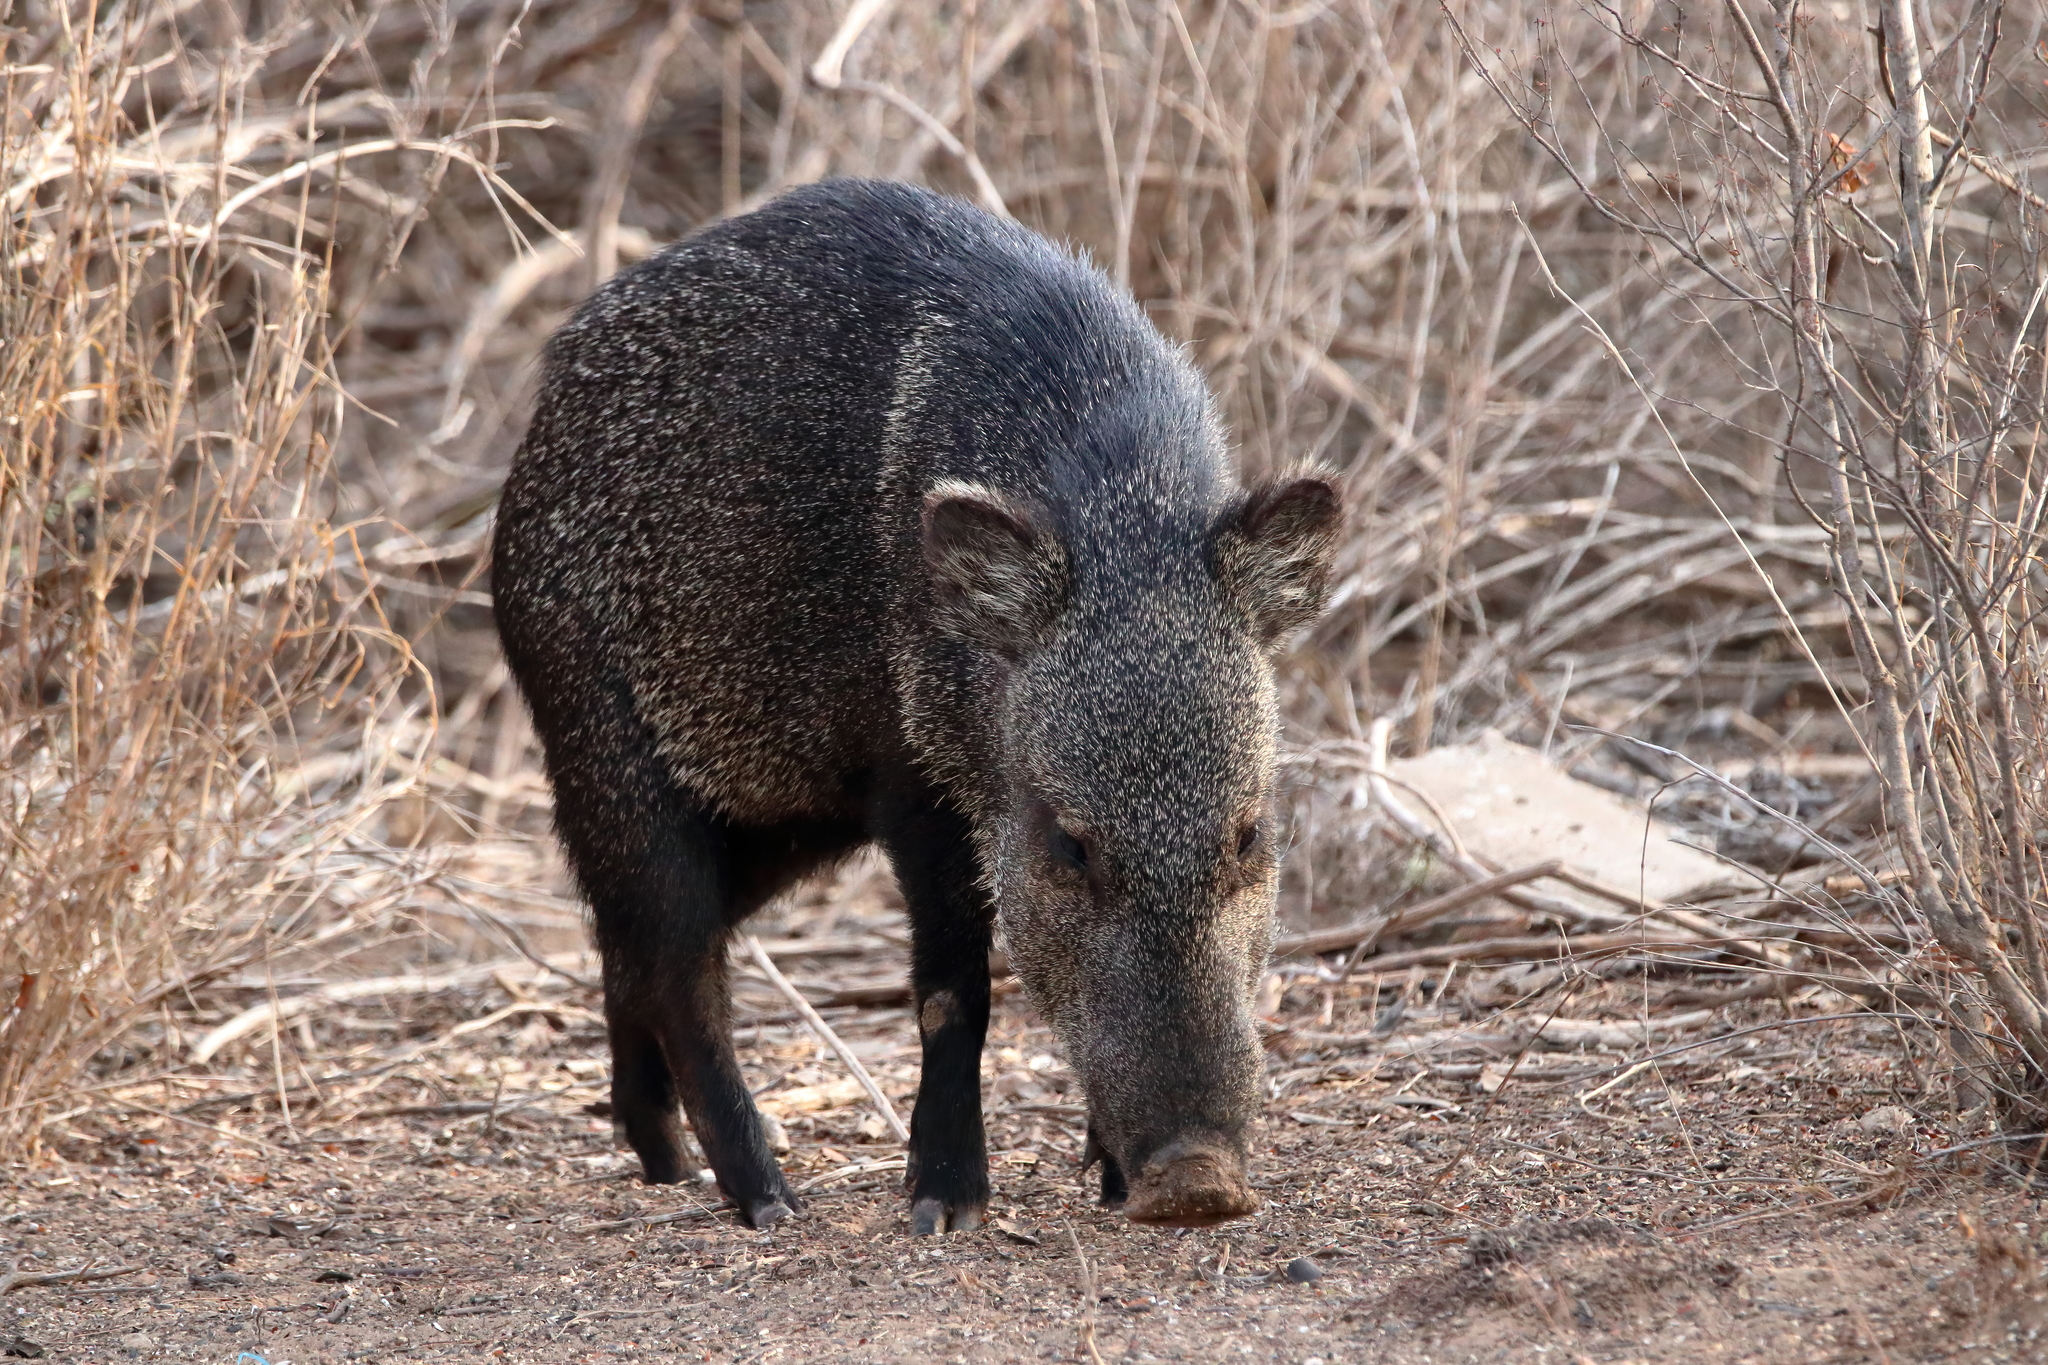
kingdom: Animalia
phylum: Chordata
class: Mammalia
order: Artiodactyla
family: Tayassuidae
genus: Pecari
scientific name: Pecari tajacu
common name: Collared peccary
